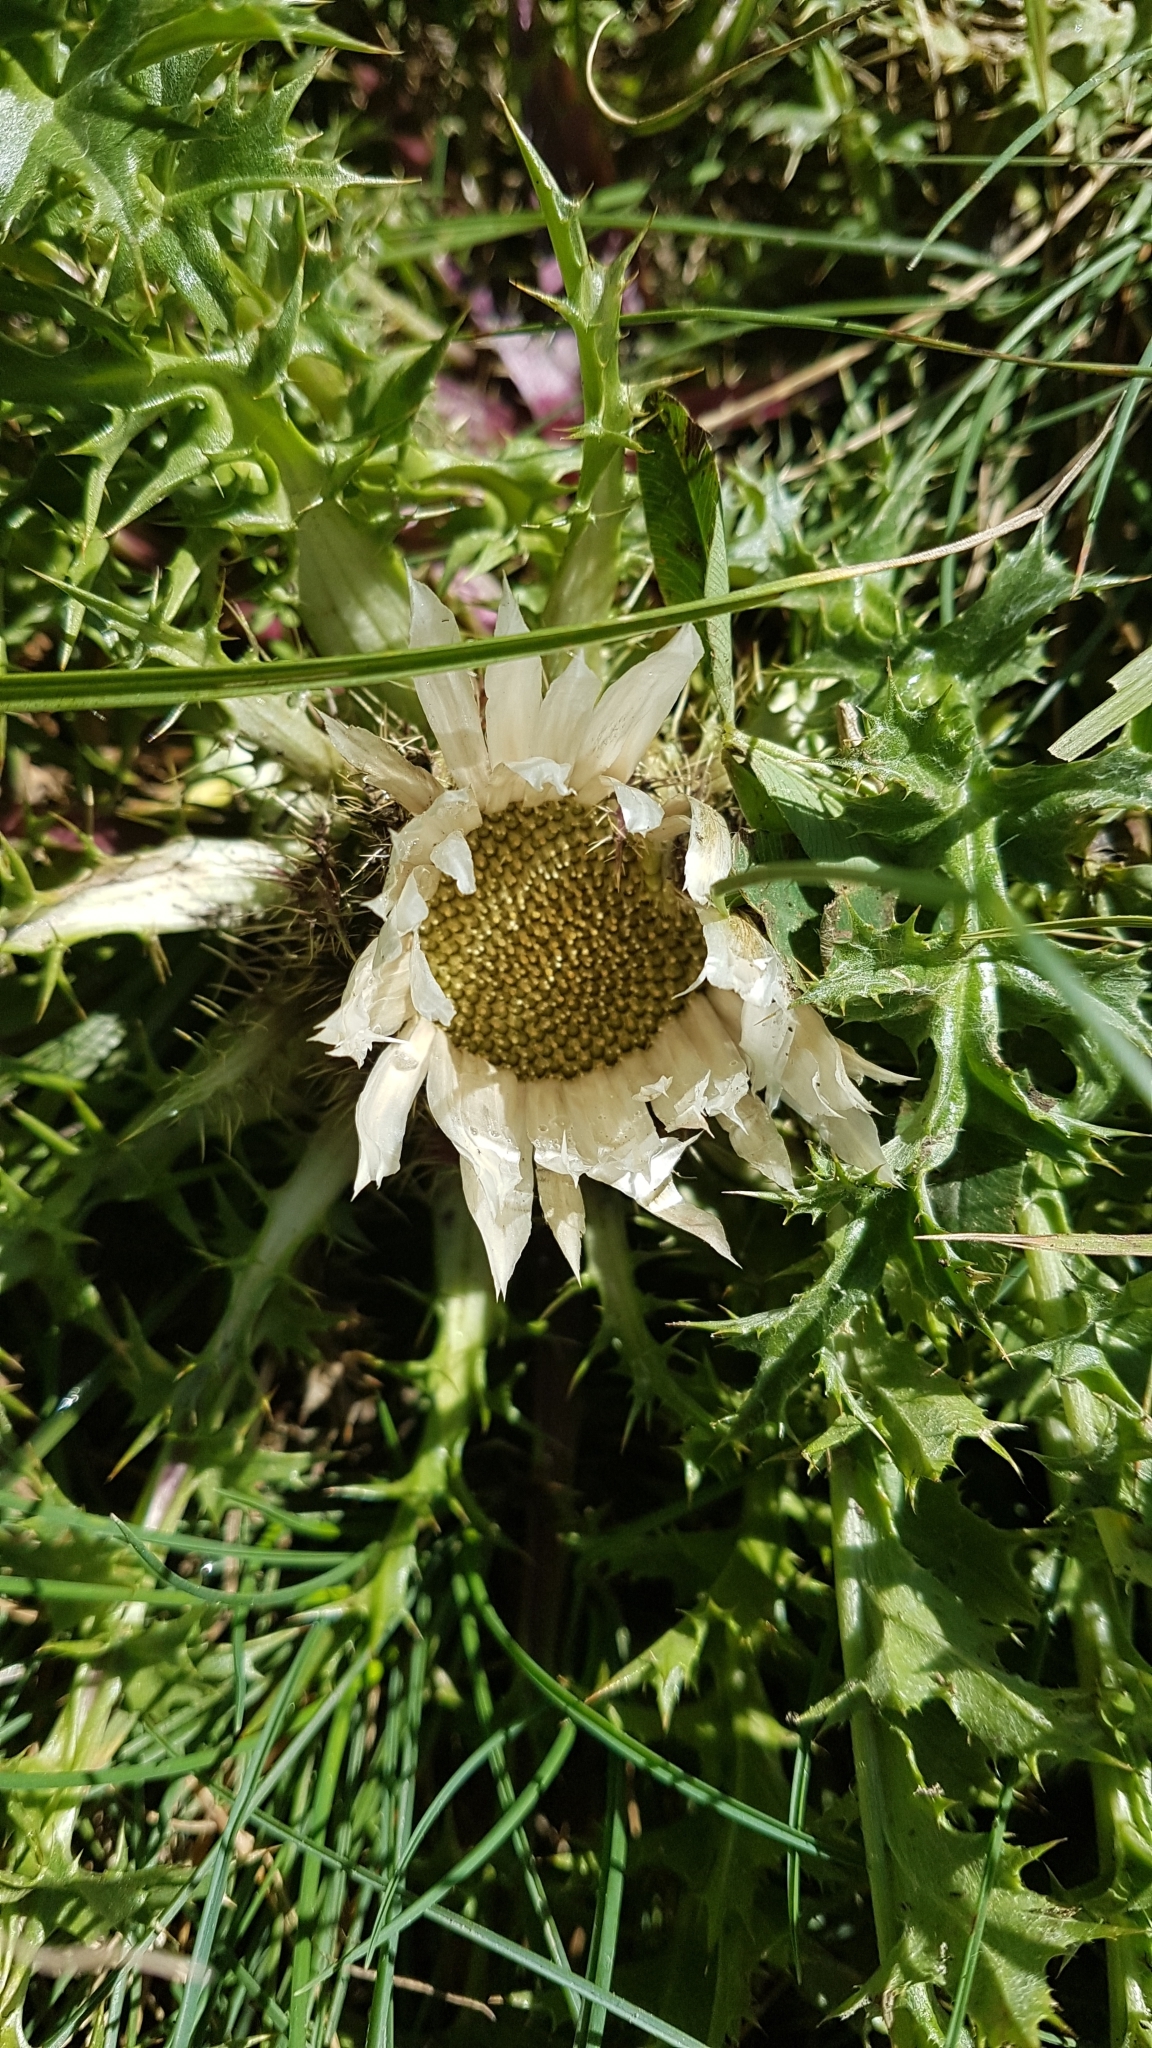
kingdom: Plantae
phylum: Tracheophyta
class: Magnoliopsida
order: Asterales
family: Asteraceae
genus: Carlina
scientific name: Carlina acaulis
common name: Stemless carline thistle
